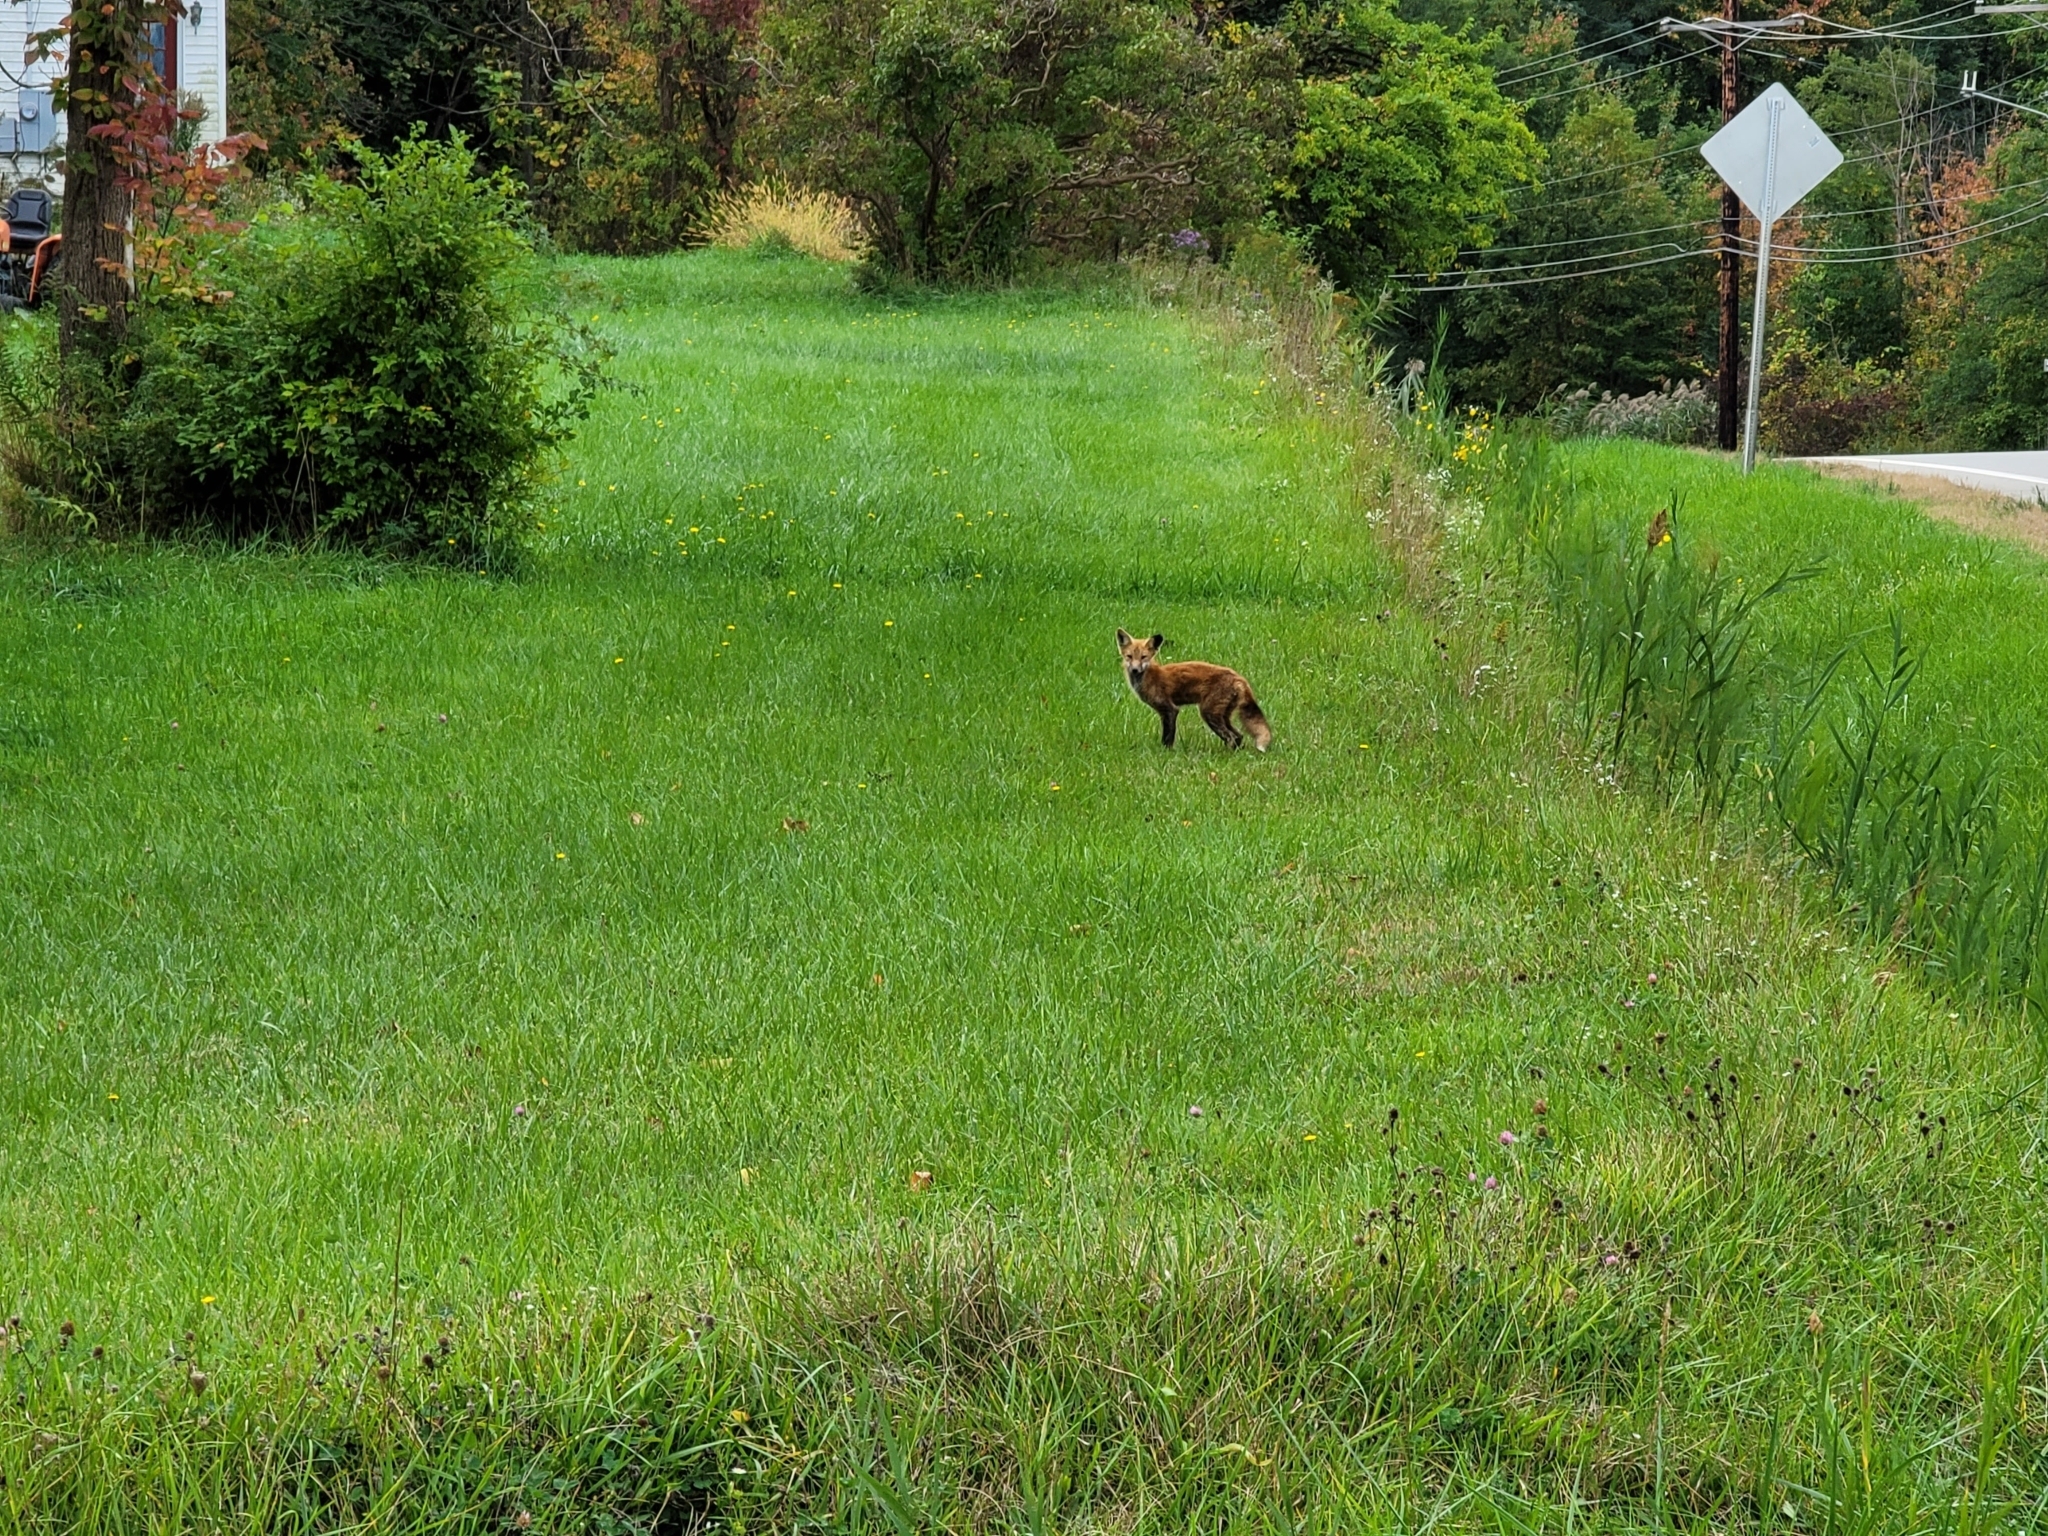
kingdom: Animalia
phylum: Chordata
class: Mammalia
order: Carnivora
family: Canidae
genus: Vulpes
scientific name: Vulpes vulpes
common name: Red fox
